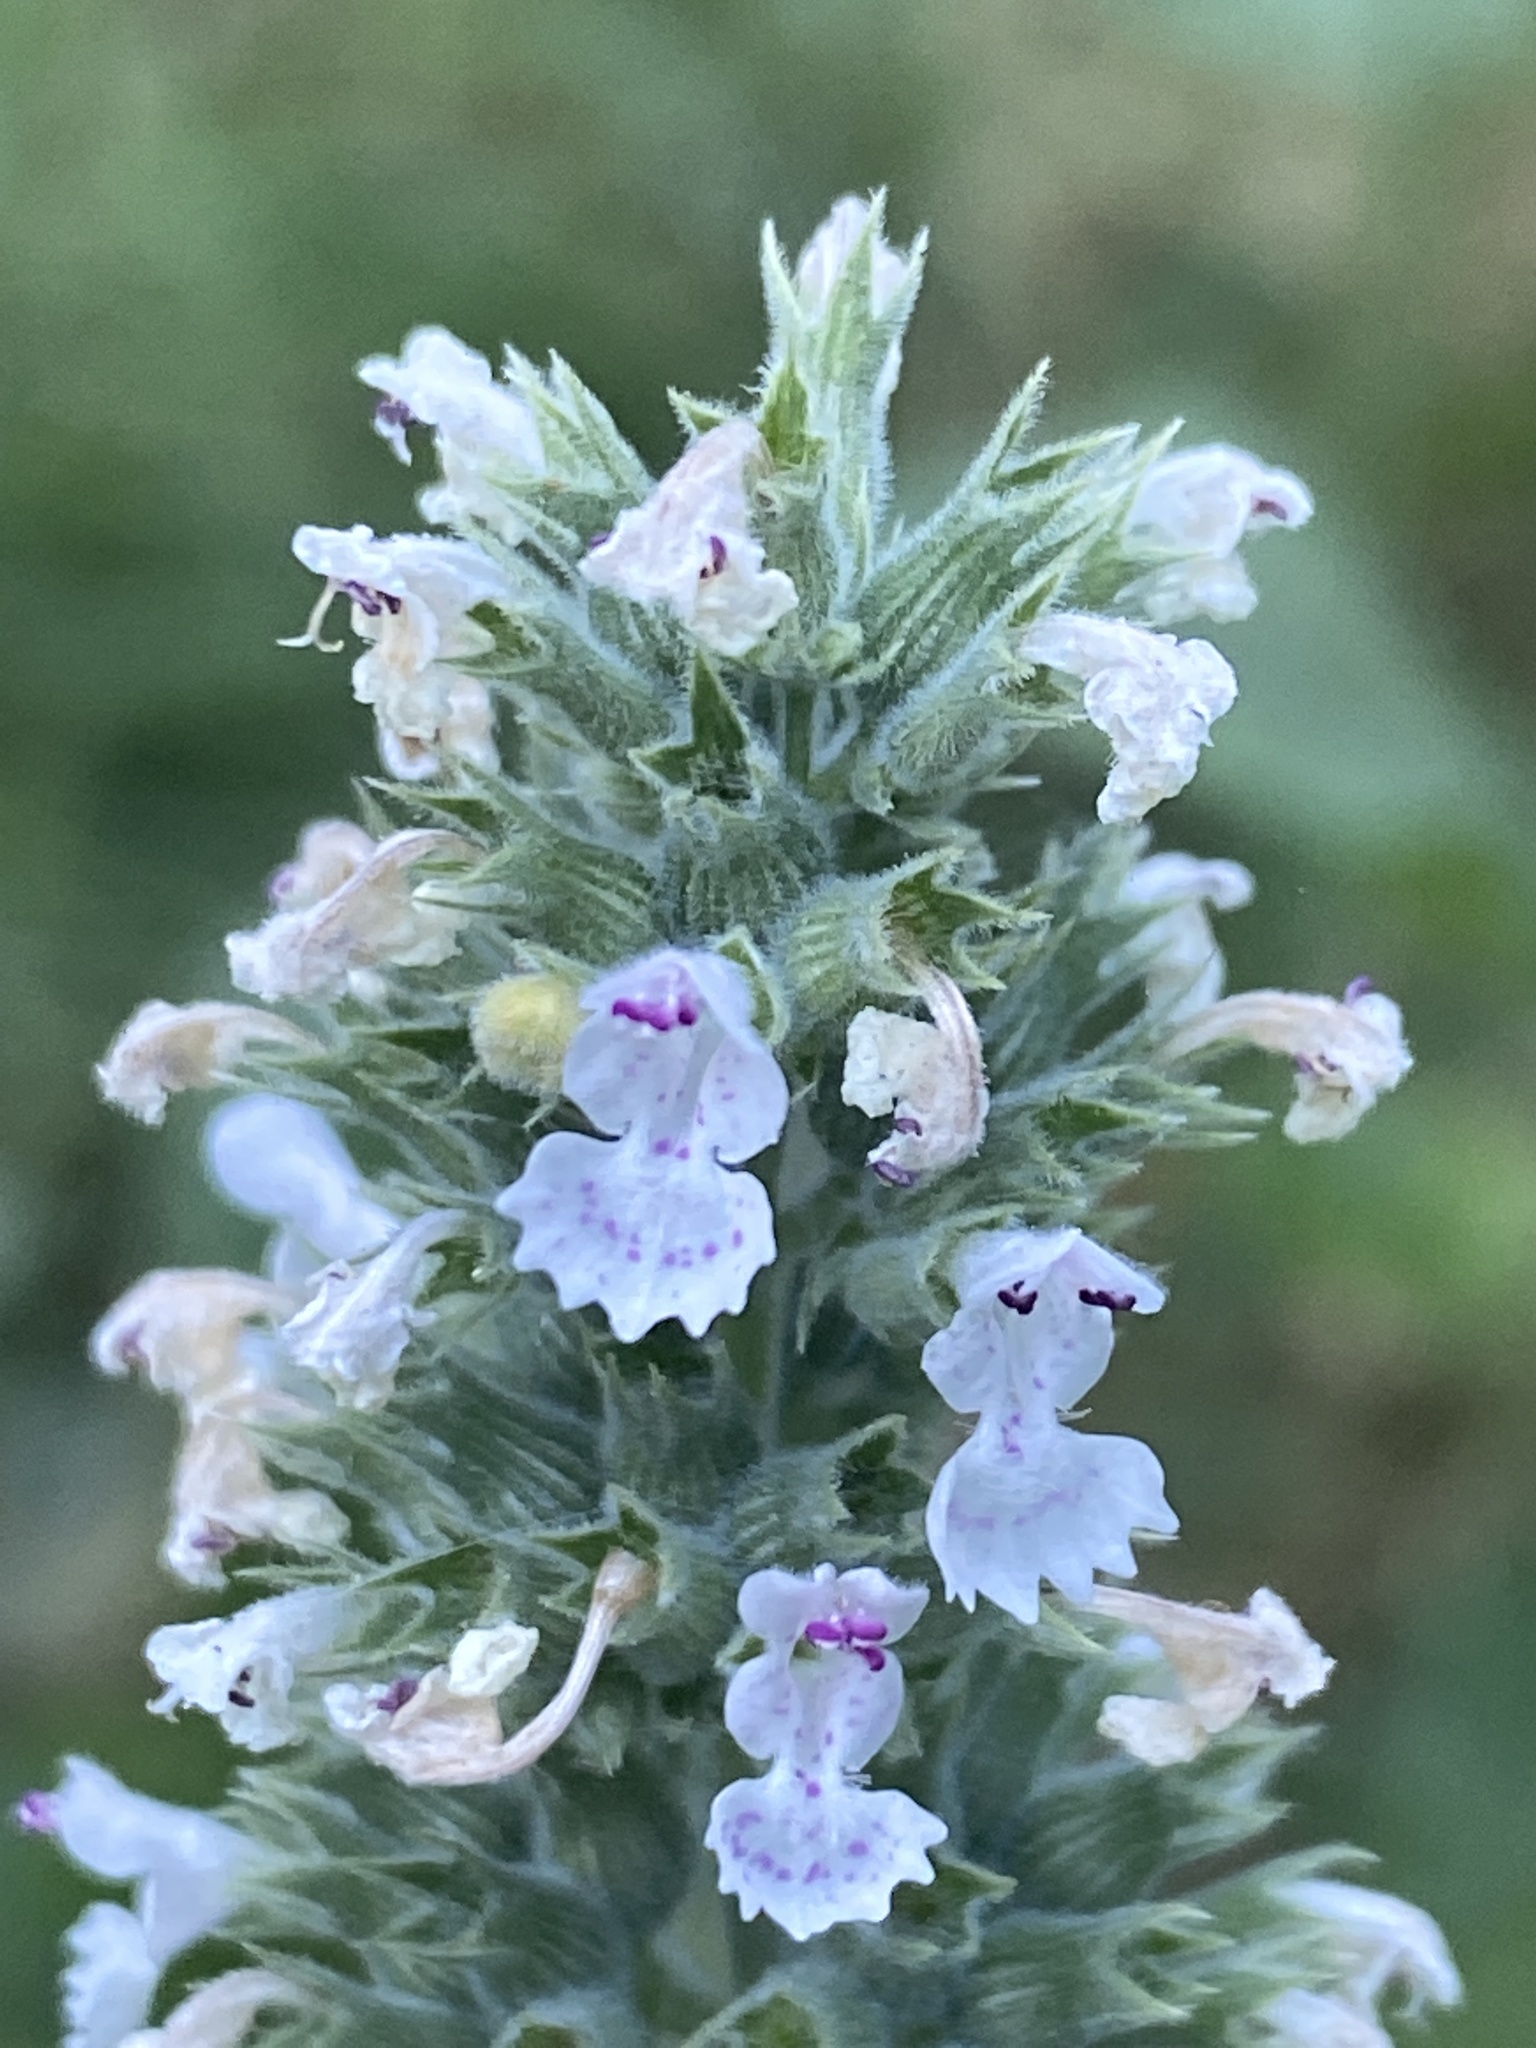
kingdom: Plantae
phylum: Tracheophyta
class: Magnoliopsida
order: Lamiales
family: Lamiaceae
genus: Nepeta
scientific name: Nepeta cataria
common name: Catnip
